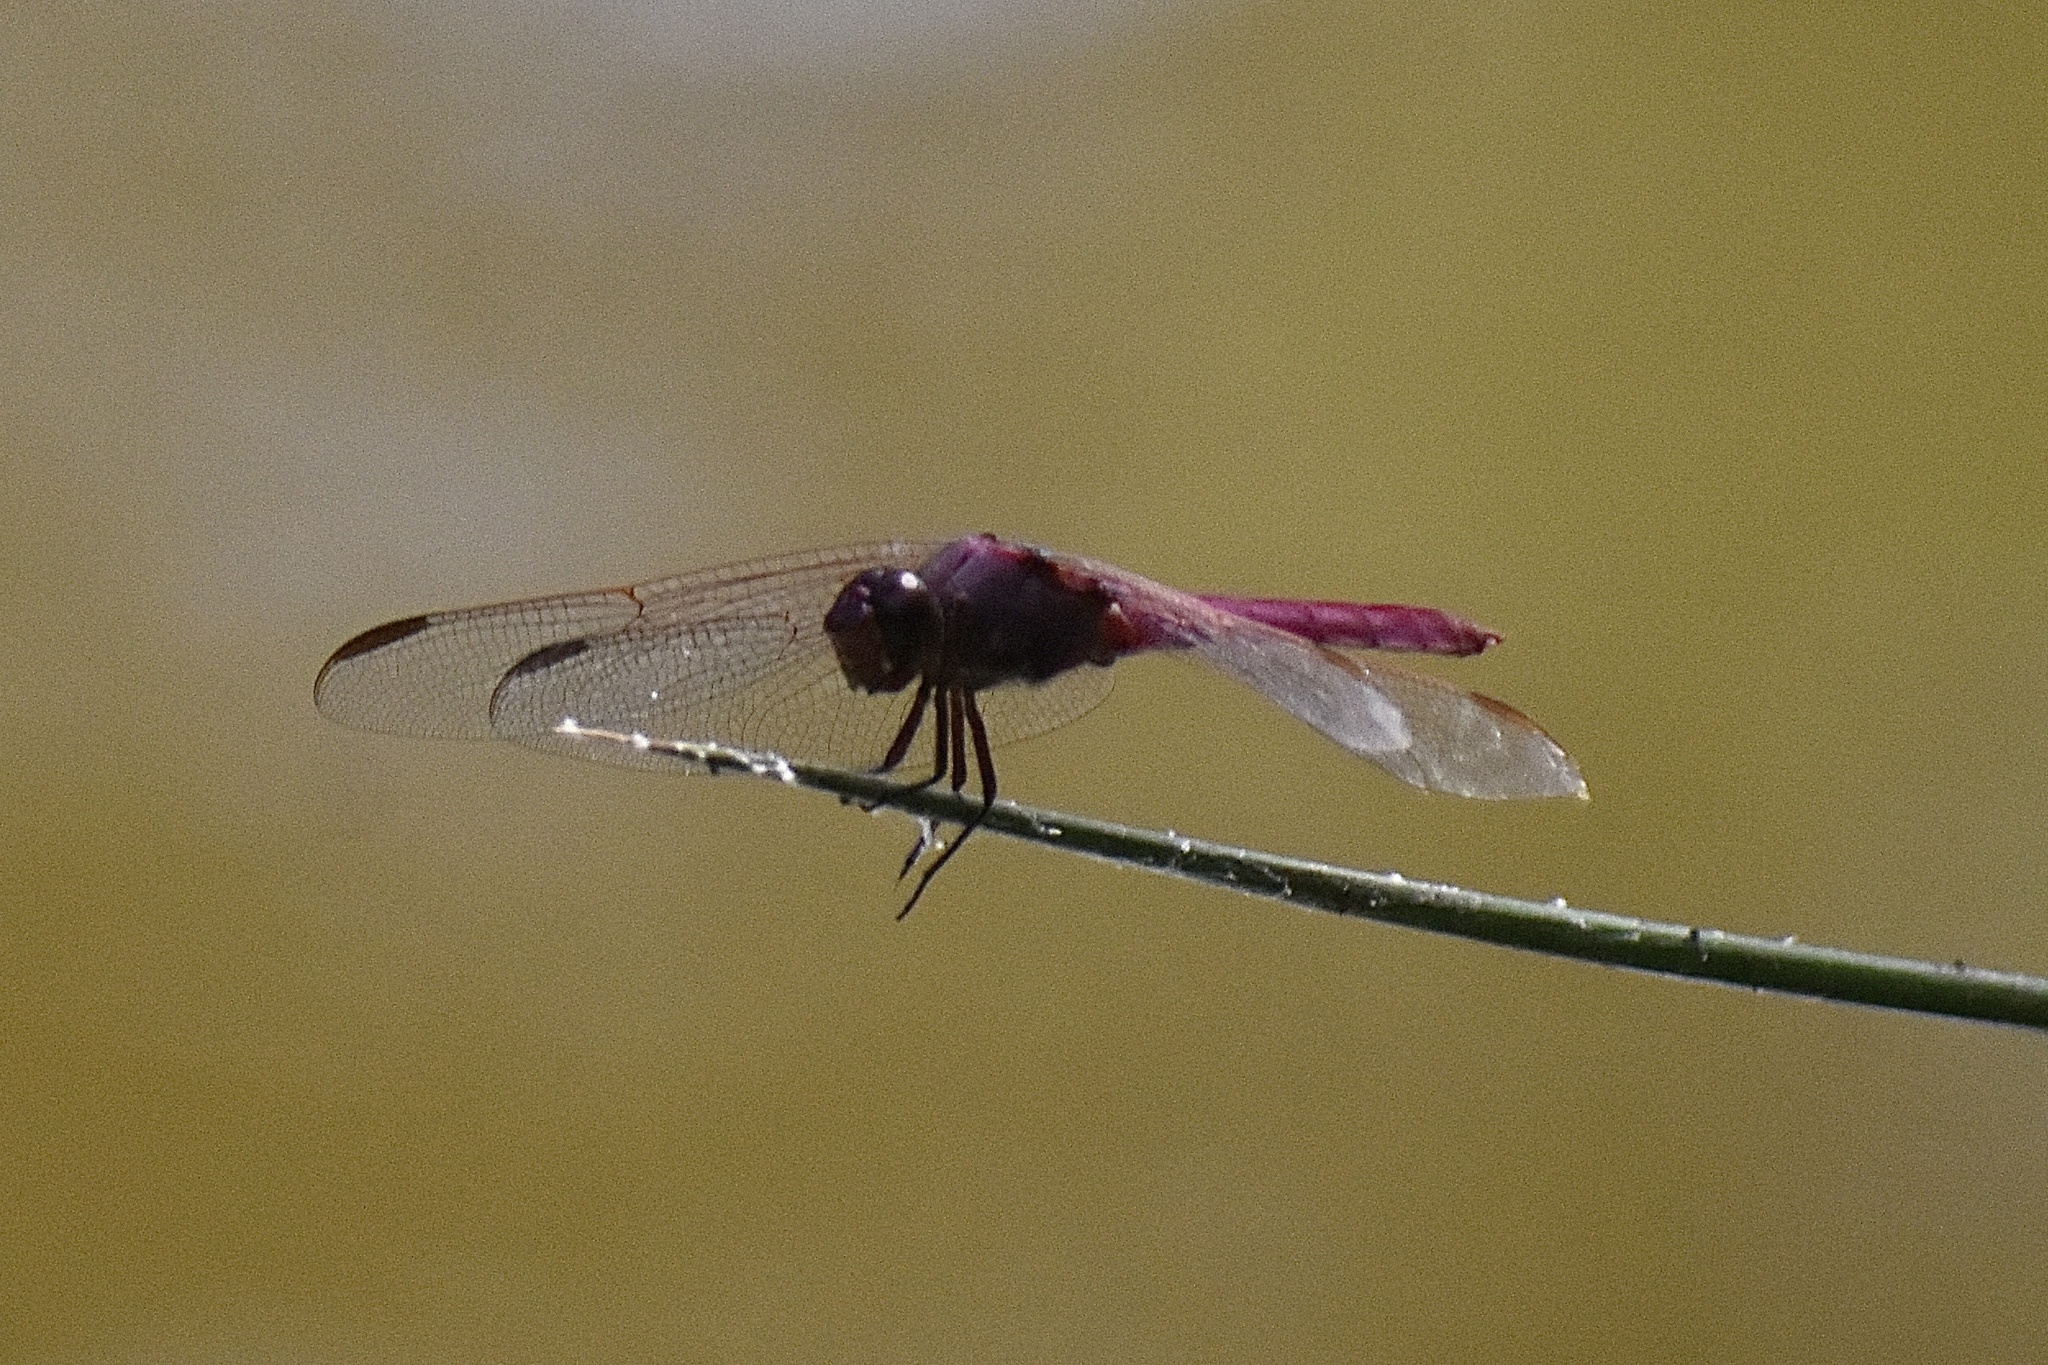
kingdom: Animalia
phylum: Arthropoda
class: Insecta
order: Odonata
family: Libellulidae
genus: Orthemis
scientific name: Orthemis ferruginea
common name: Roseate skimmer
